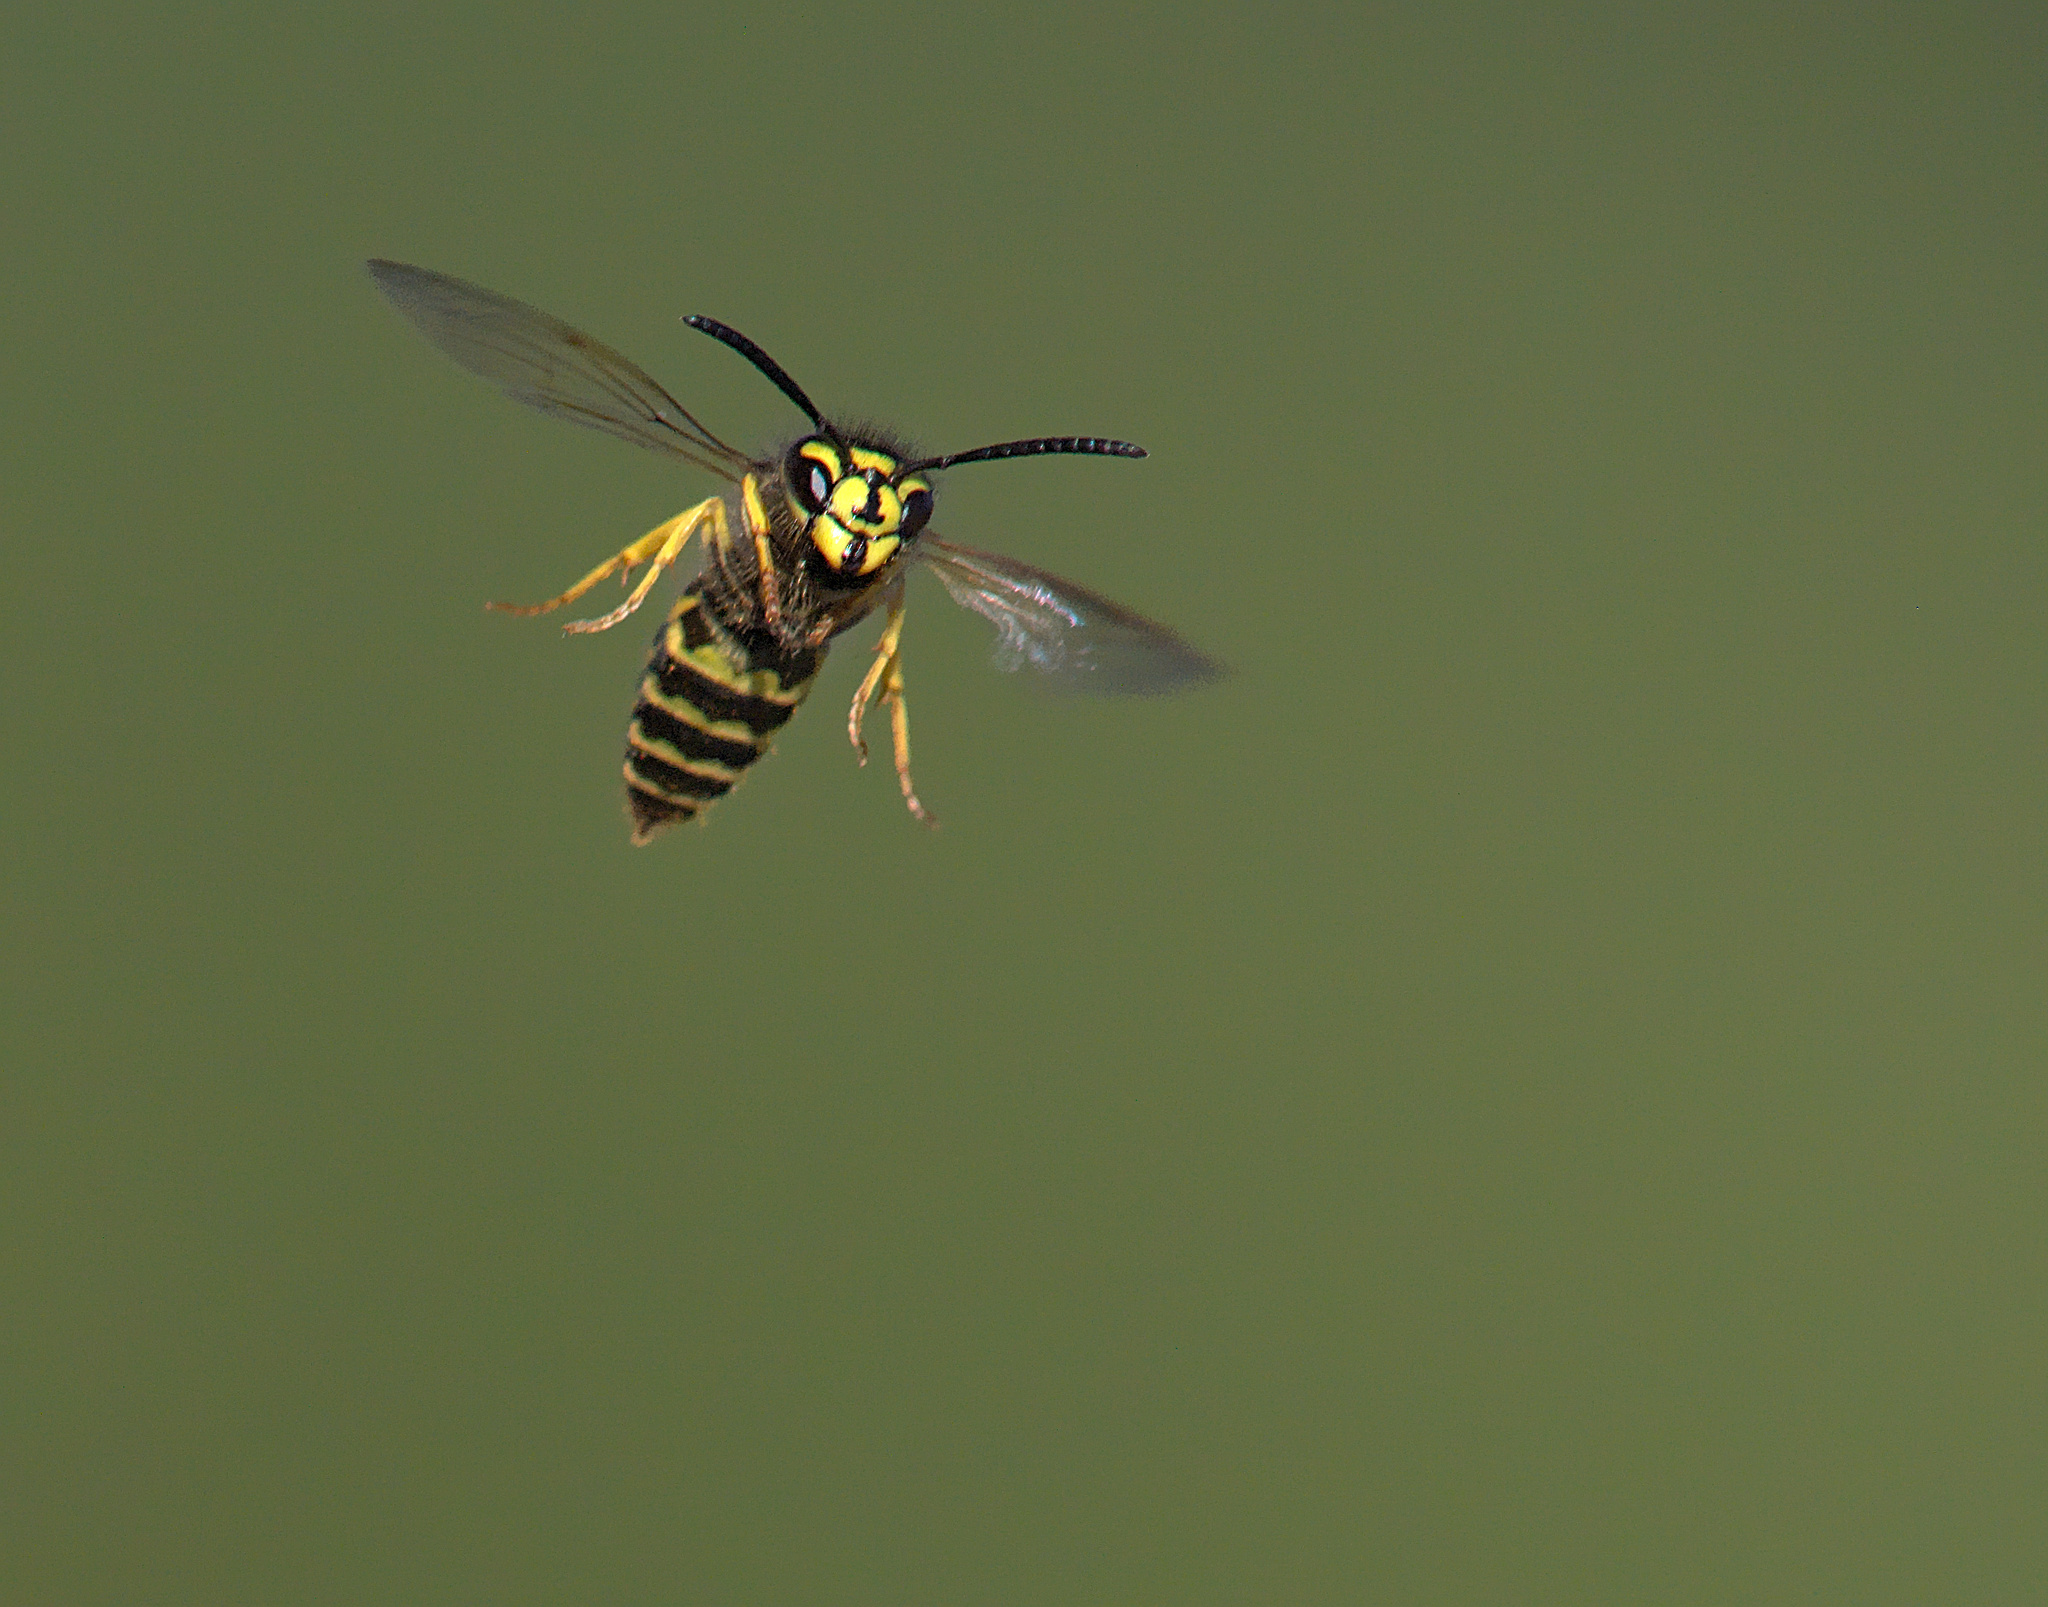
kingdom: Animalia
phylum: Arthropoda
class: Insecta
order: Hymenoptera
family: Vespidae
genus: Vespula
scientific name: Vespula
